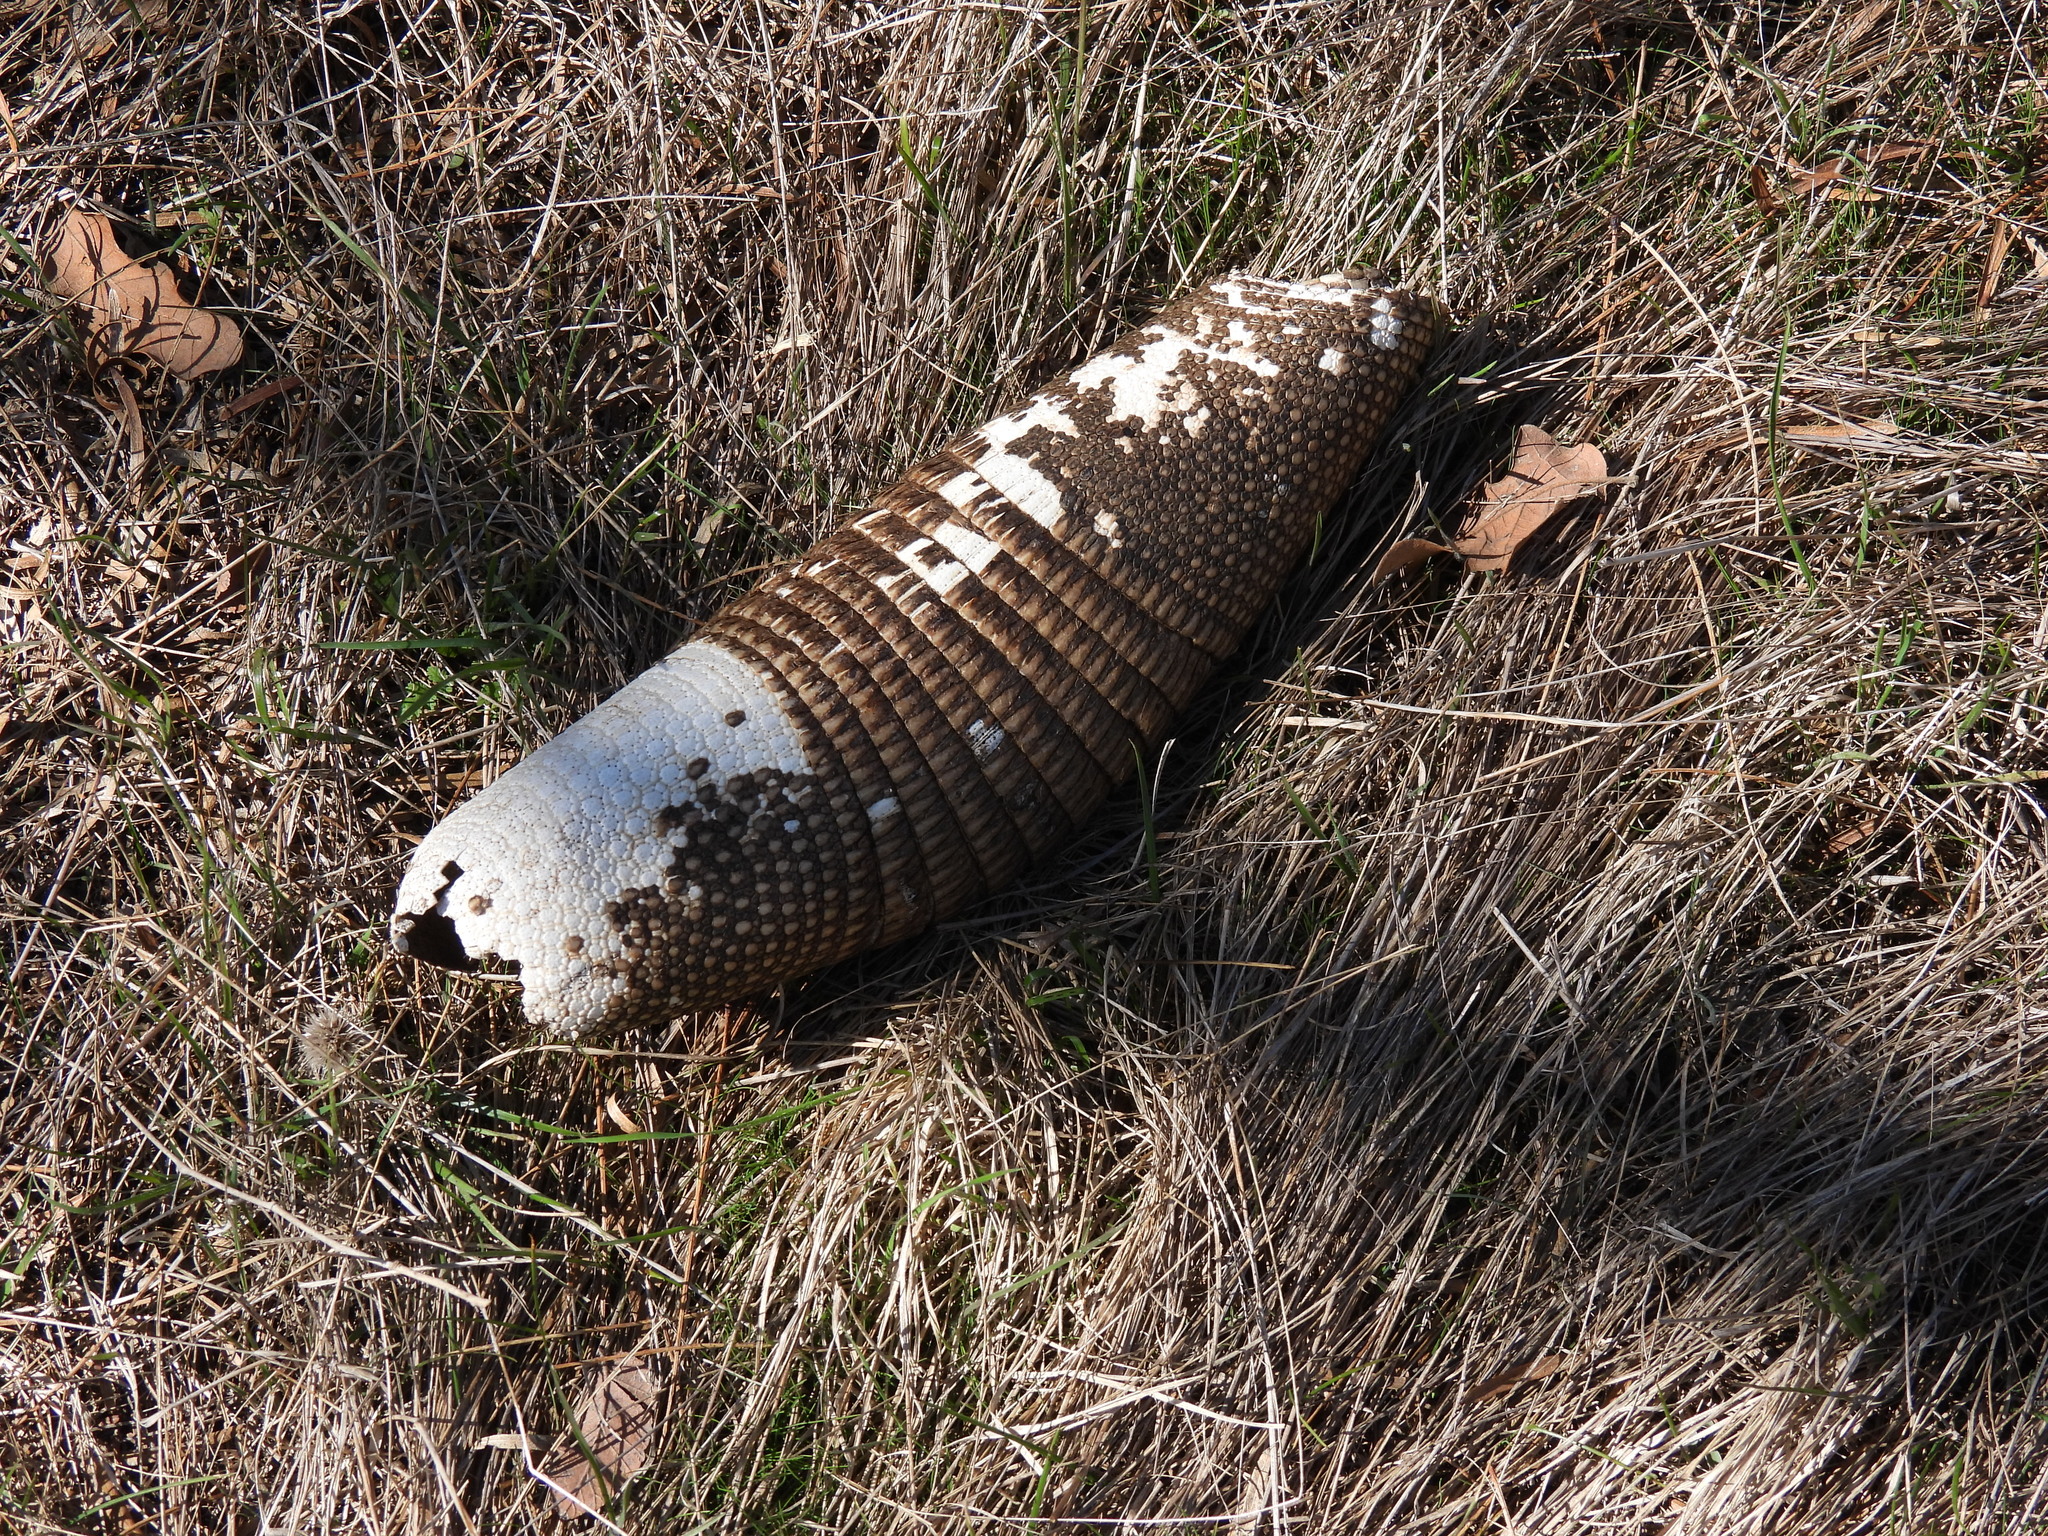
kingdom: Animalia
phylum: Chordata
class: Mammalia
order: Cingulata
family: Dasypodidae
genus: Dasypus
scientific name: Dasypus novemcinctus
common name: Nine-banded armadillo
